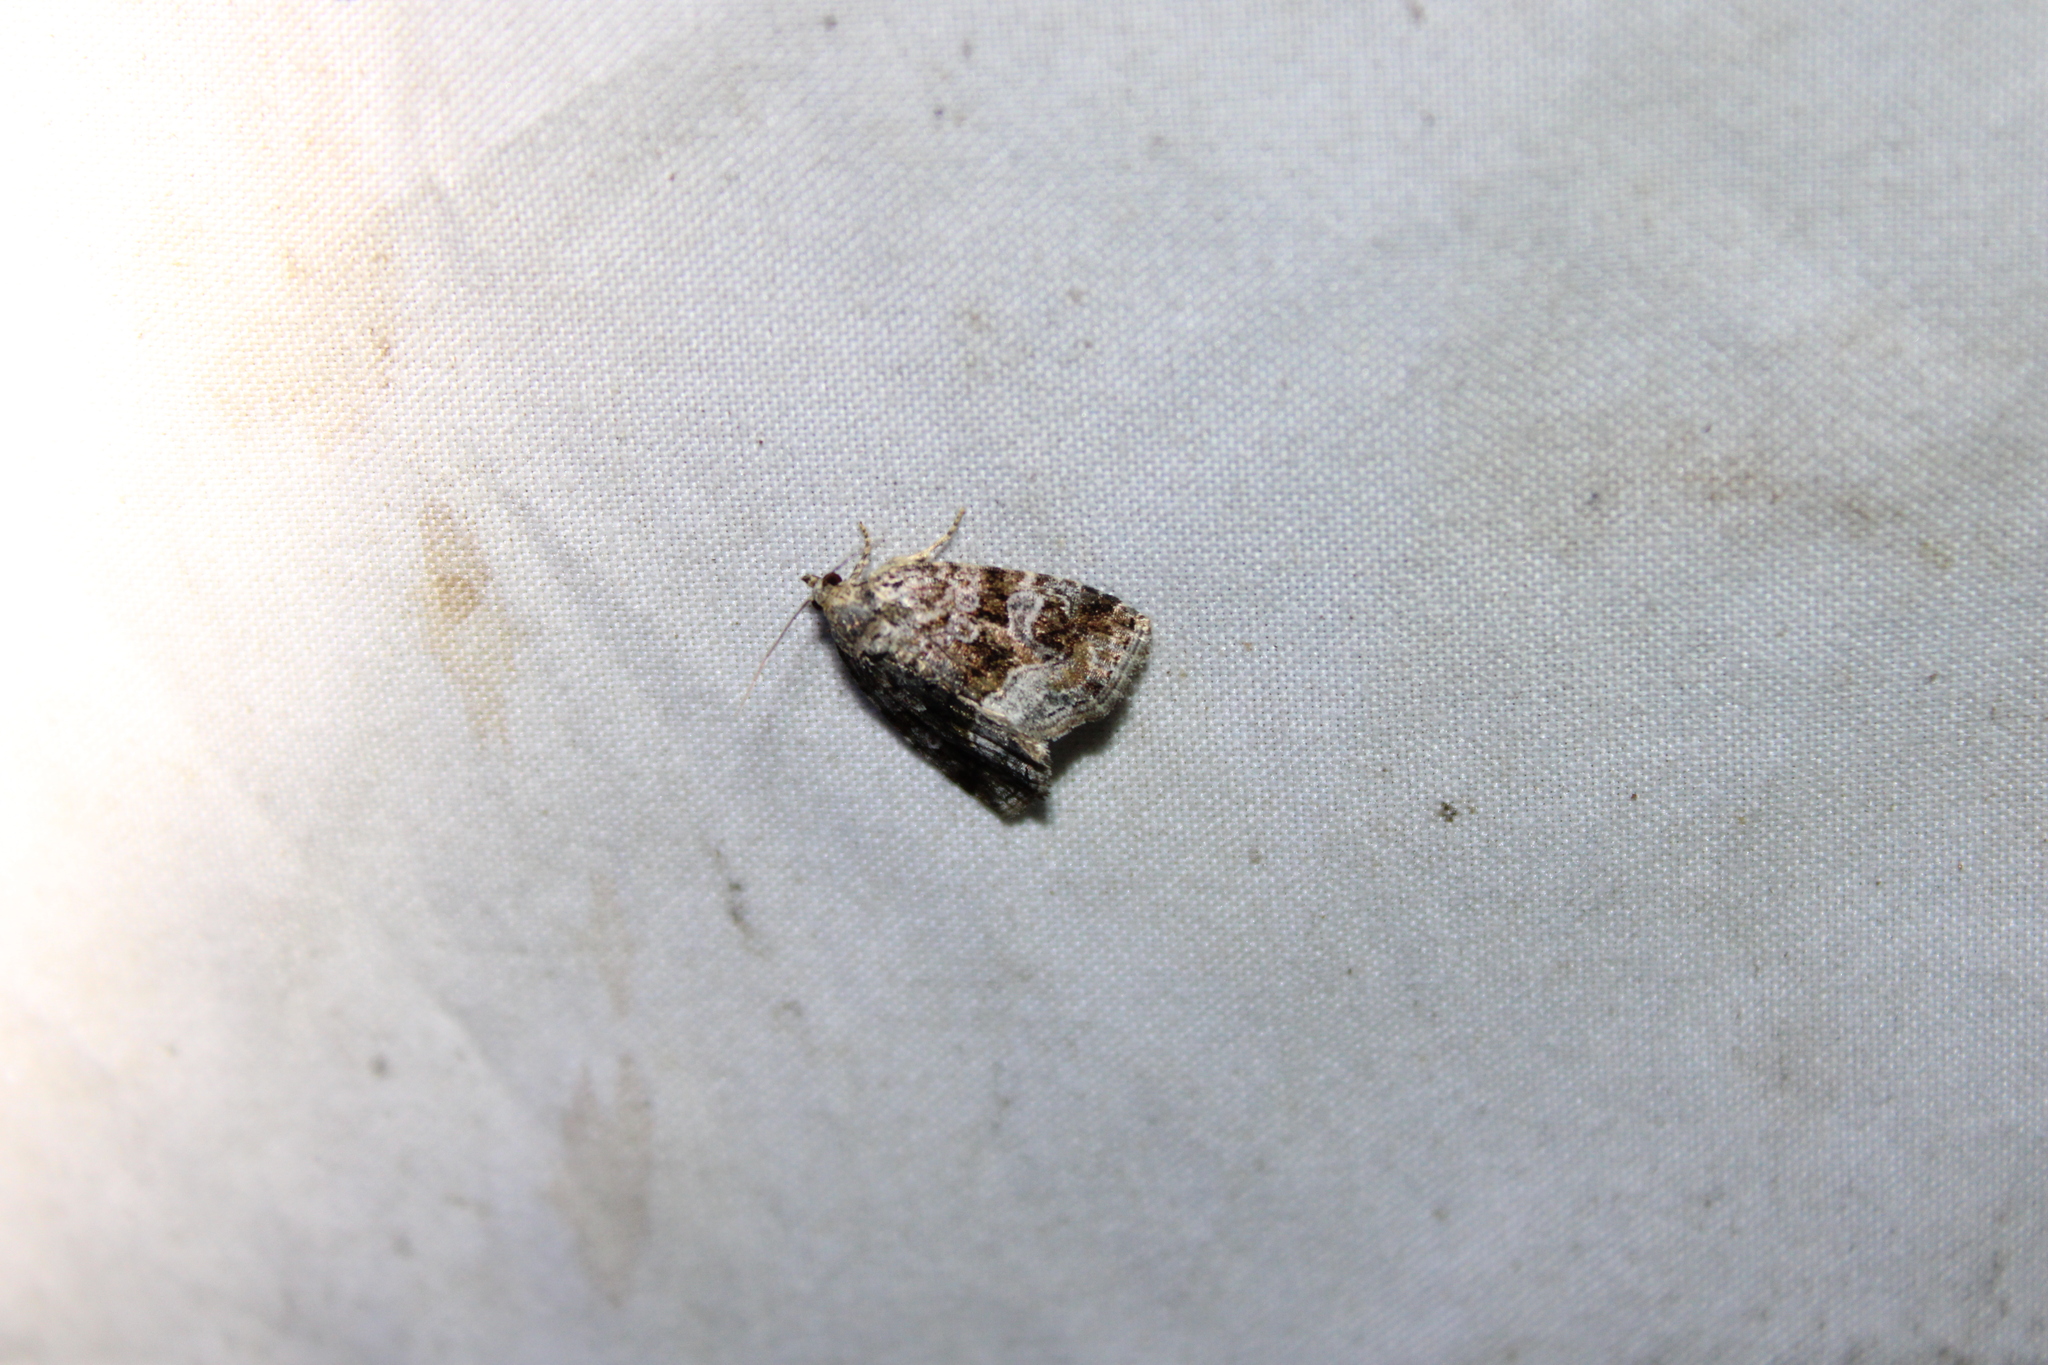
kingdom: Animalia
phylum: Arthropoda
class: Insecta
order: Lepidoptera
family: Noctuidae
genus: Protodeltote
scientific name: Protodeltote muscosula
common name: Large mossy glyph
